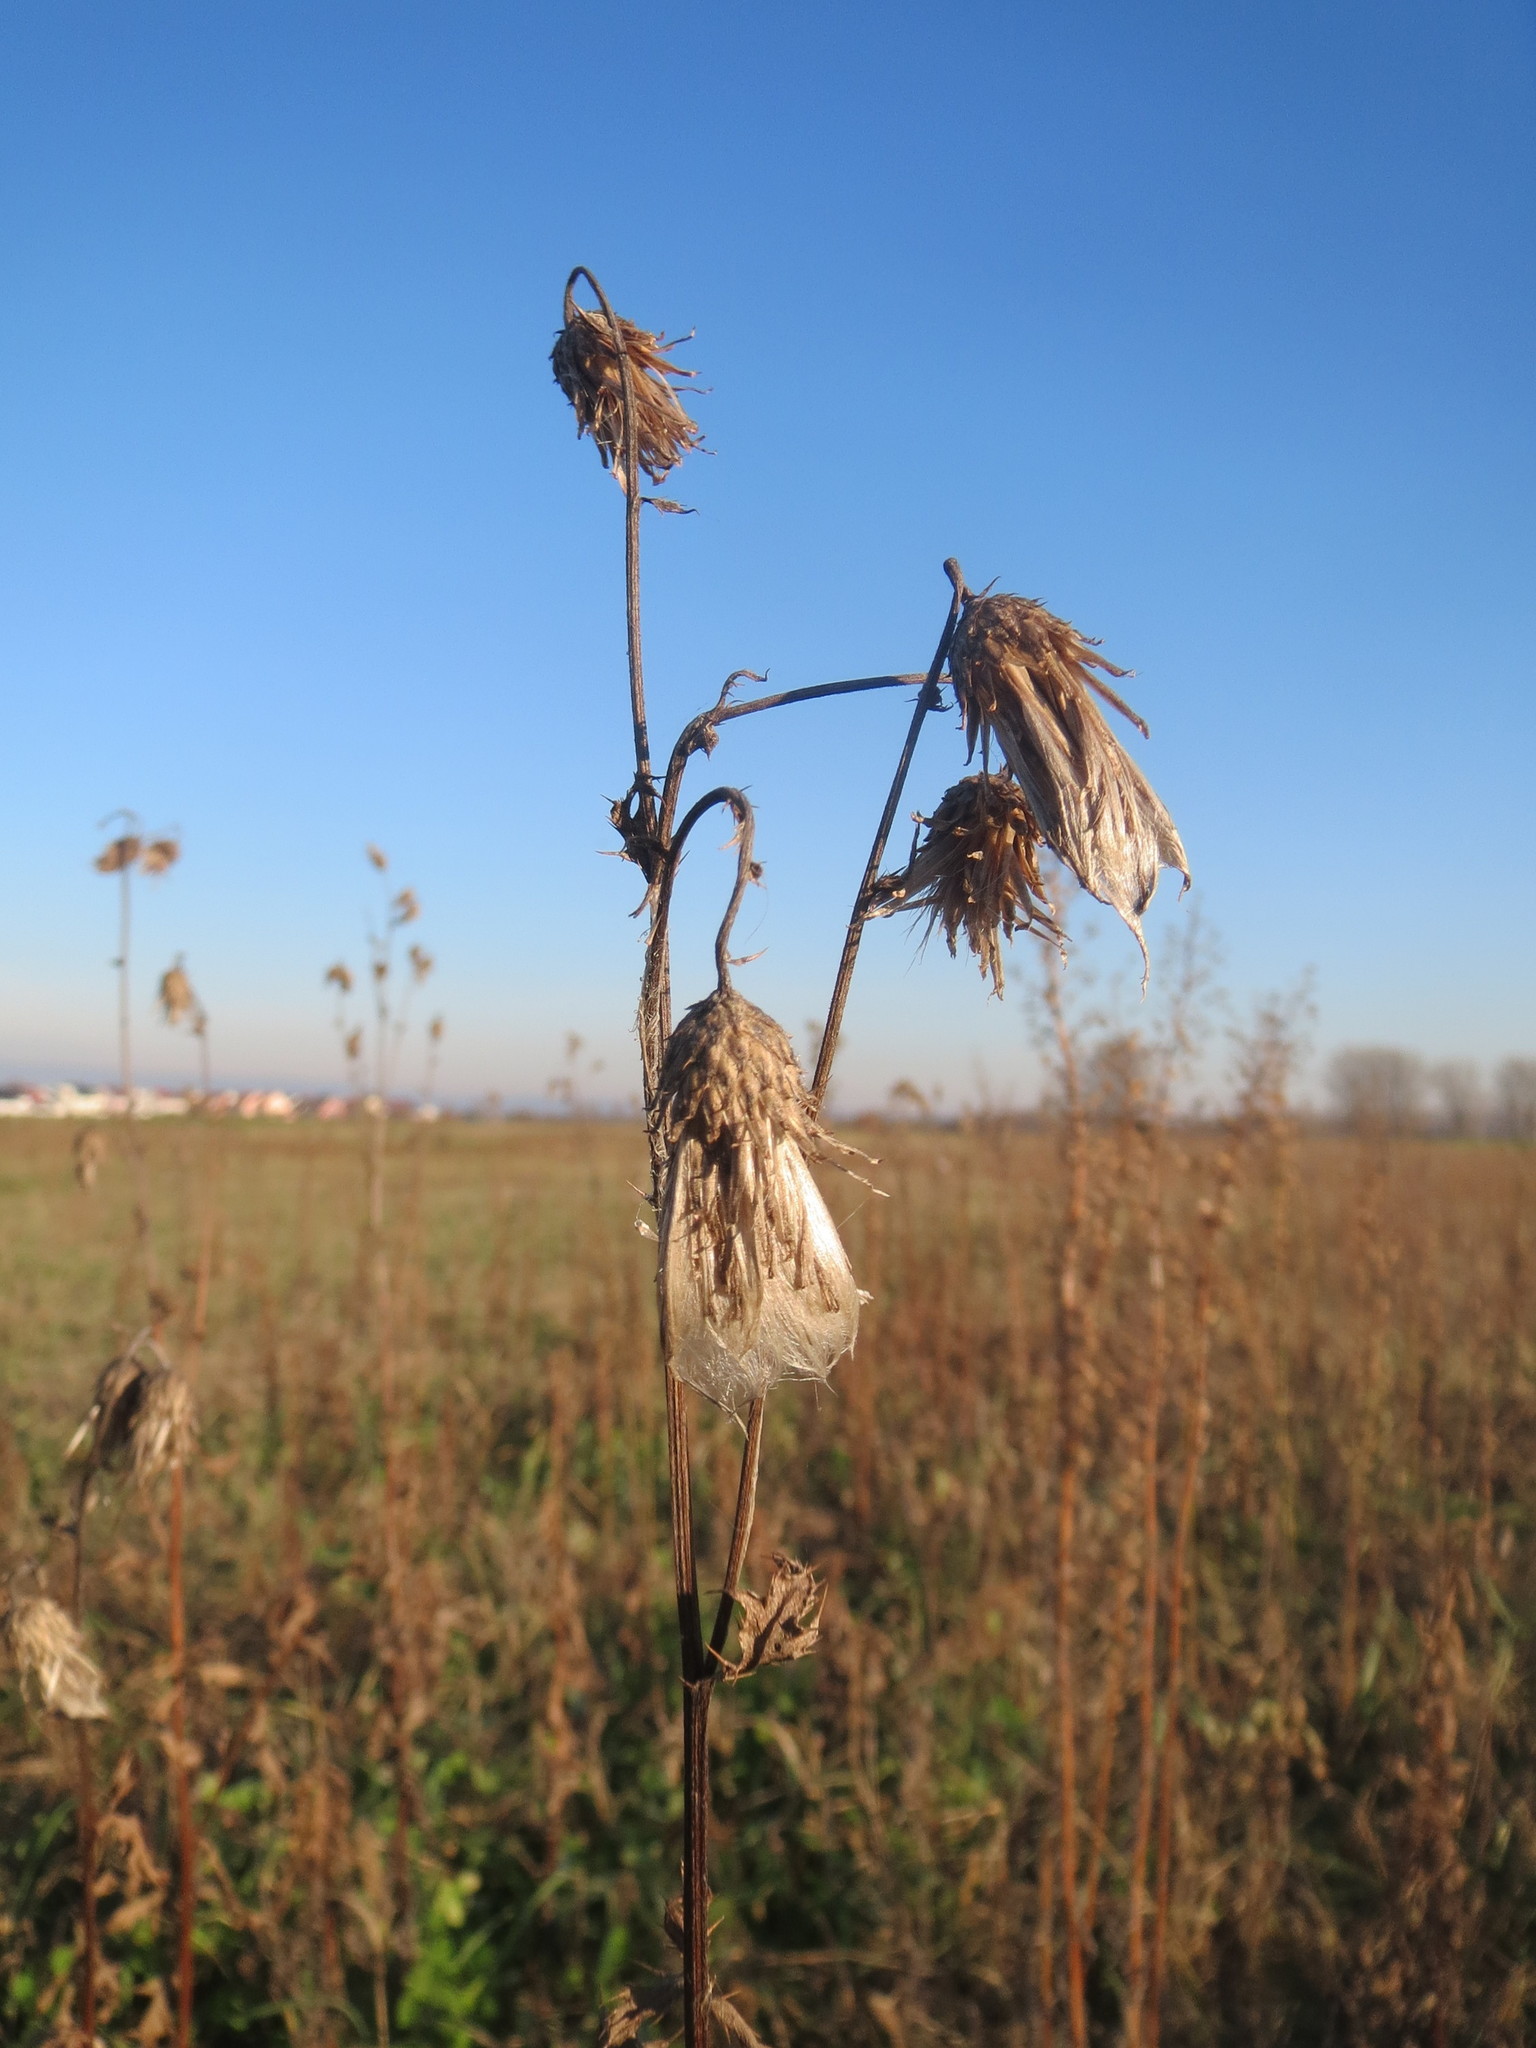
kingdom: Plantae
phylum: Tracheophyta
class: Magnoliopsida
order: Asterales
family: Asteraceae
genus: Cirsium
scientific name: Cirsium arvense
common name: Creeping thistle
